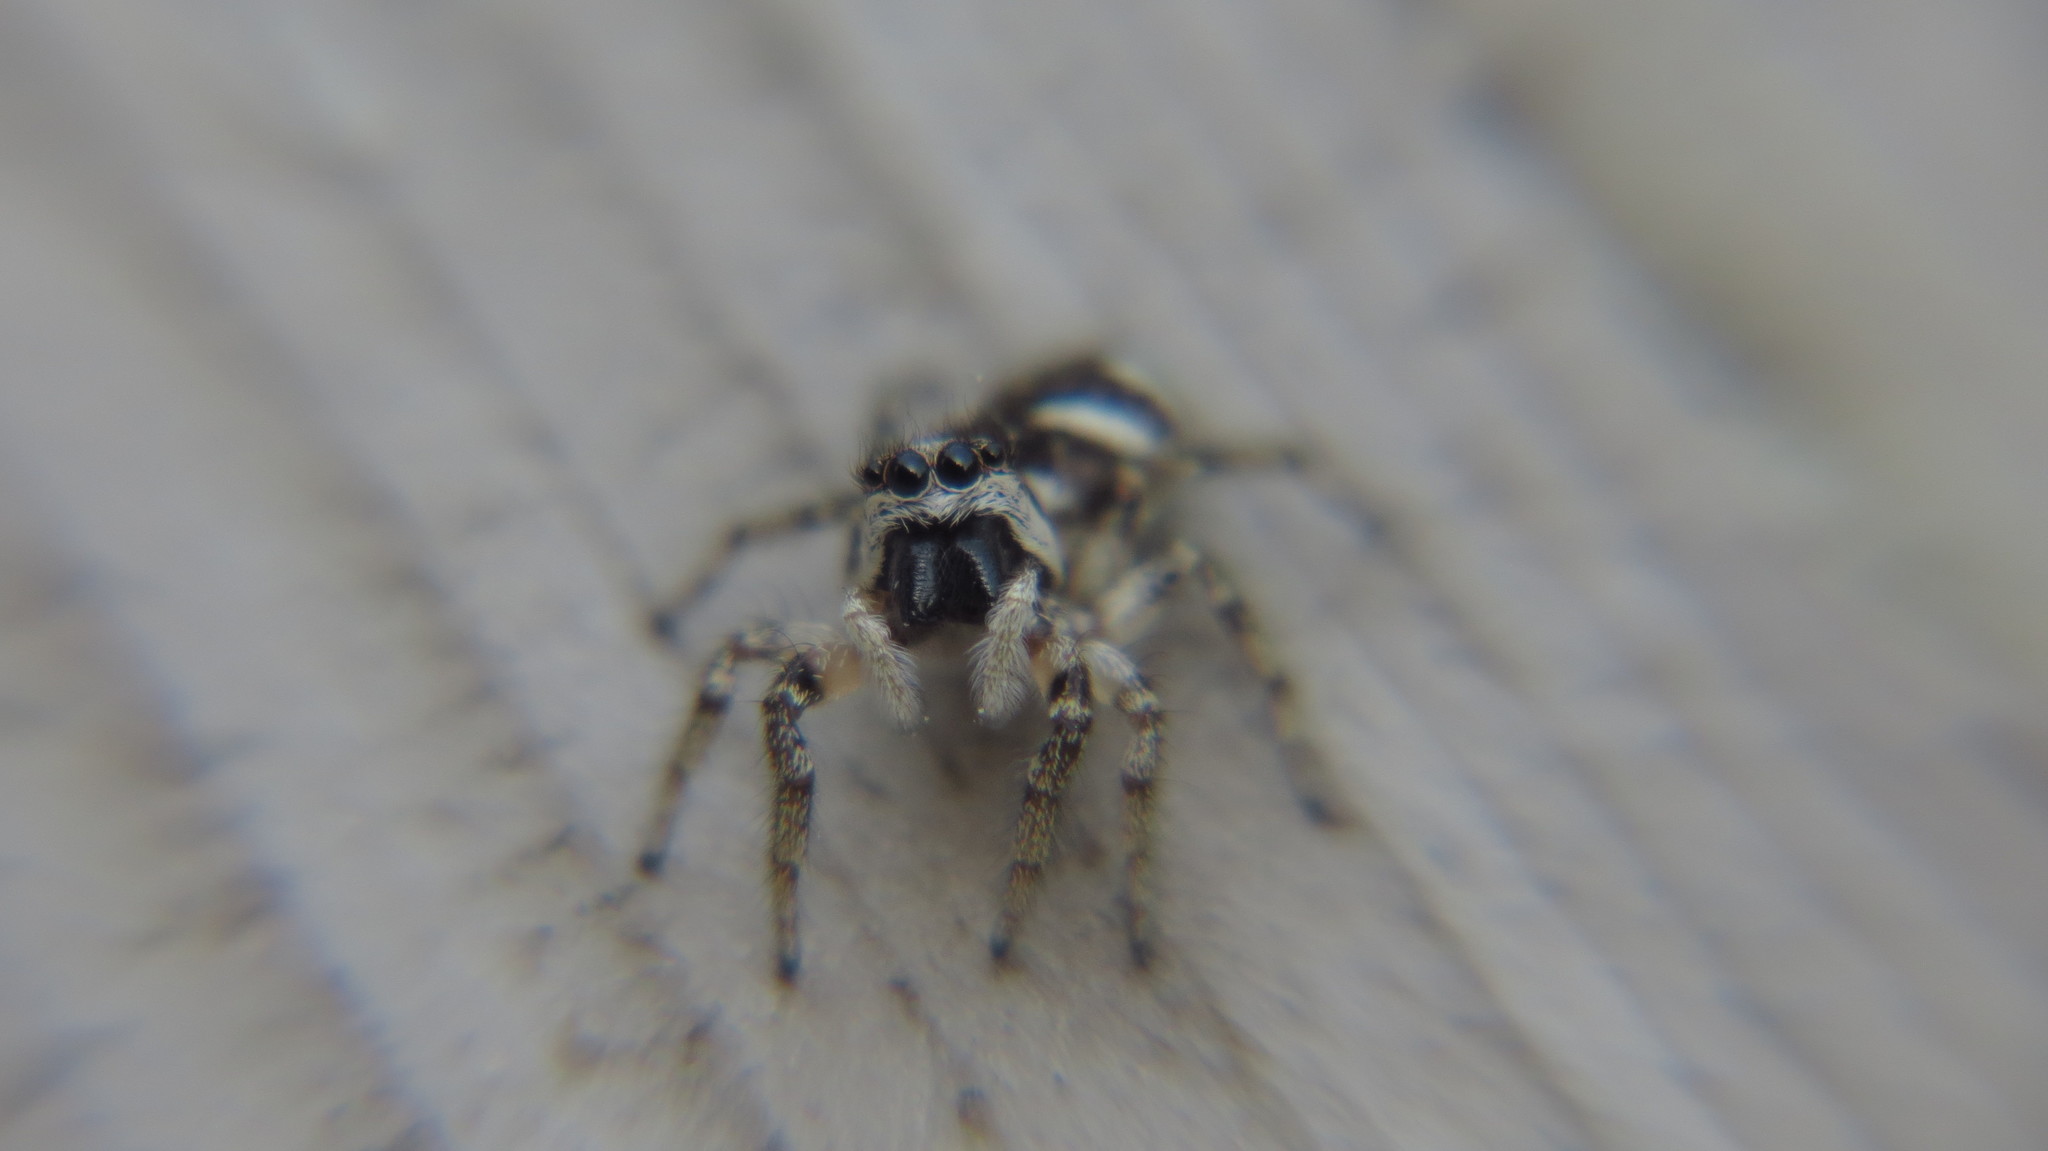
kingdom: Animalia
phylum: Arthropoda
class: Arachnida
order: Araneae
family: Salticidae
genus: Salticus
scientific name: Salticus scenicus
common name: Zebra jumper
